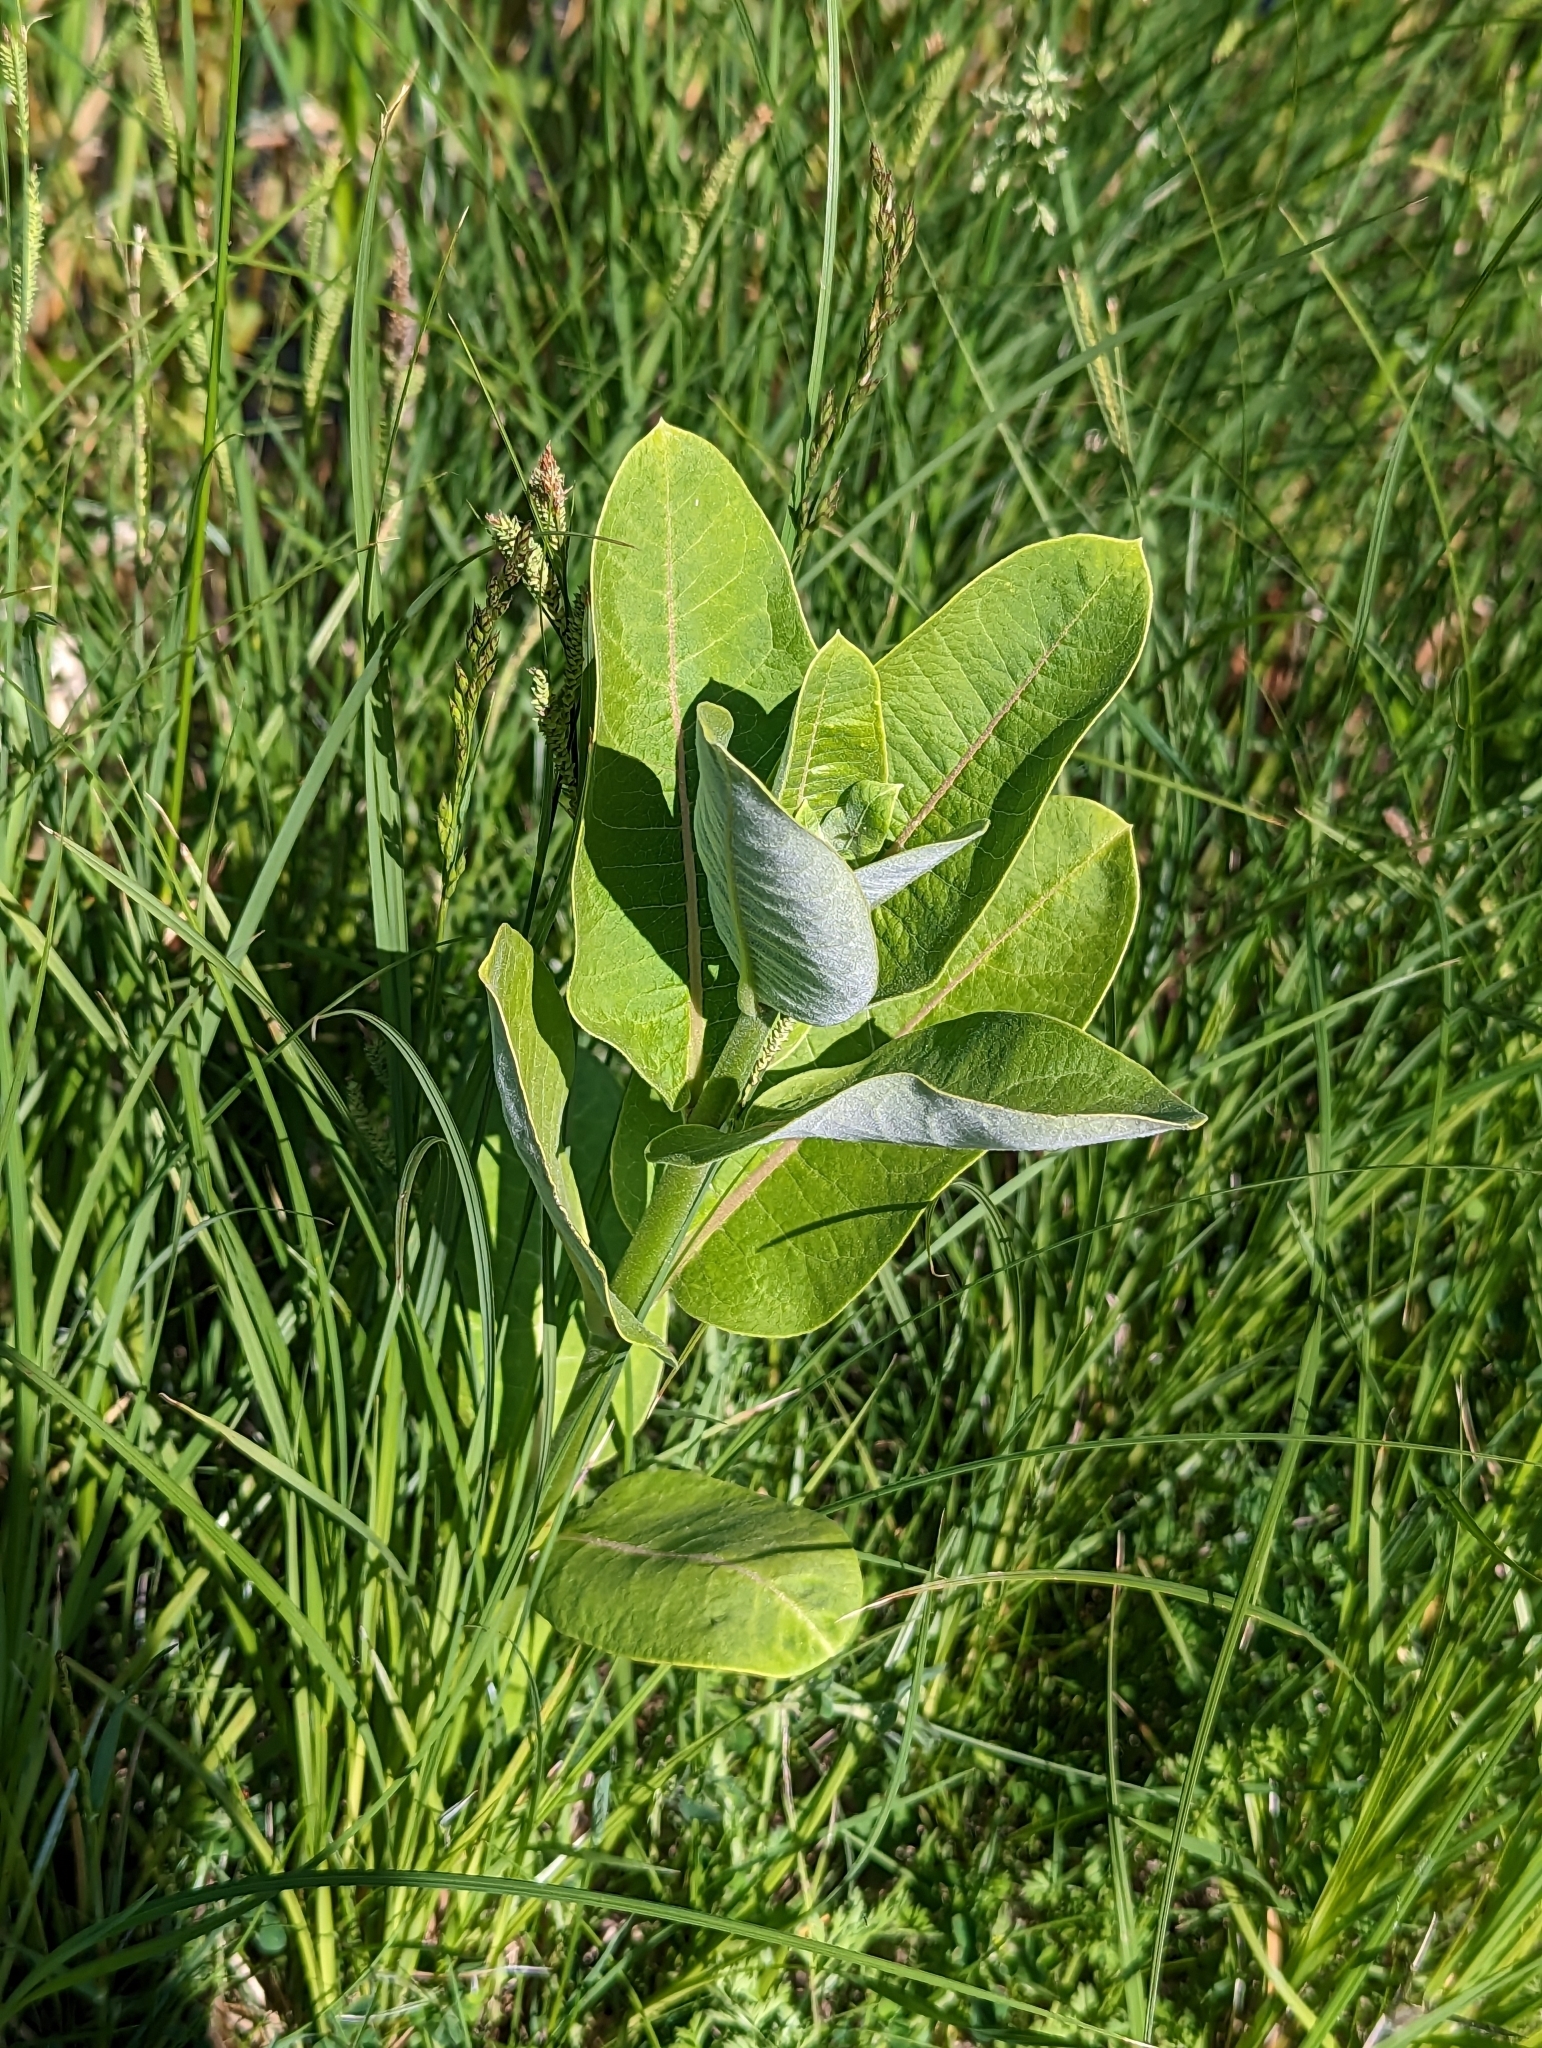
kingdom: Plantae
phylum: Tracheophyta
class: Magnoliopsida
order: Gentianales
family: Apocynaceae
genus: Asclepias
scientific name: Asclepias syriaca
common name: Common milkweed
